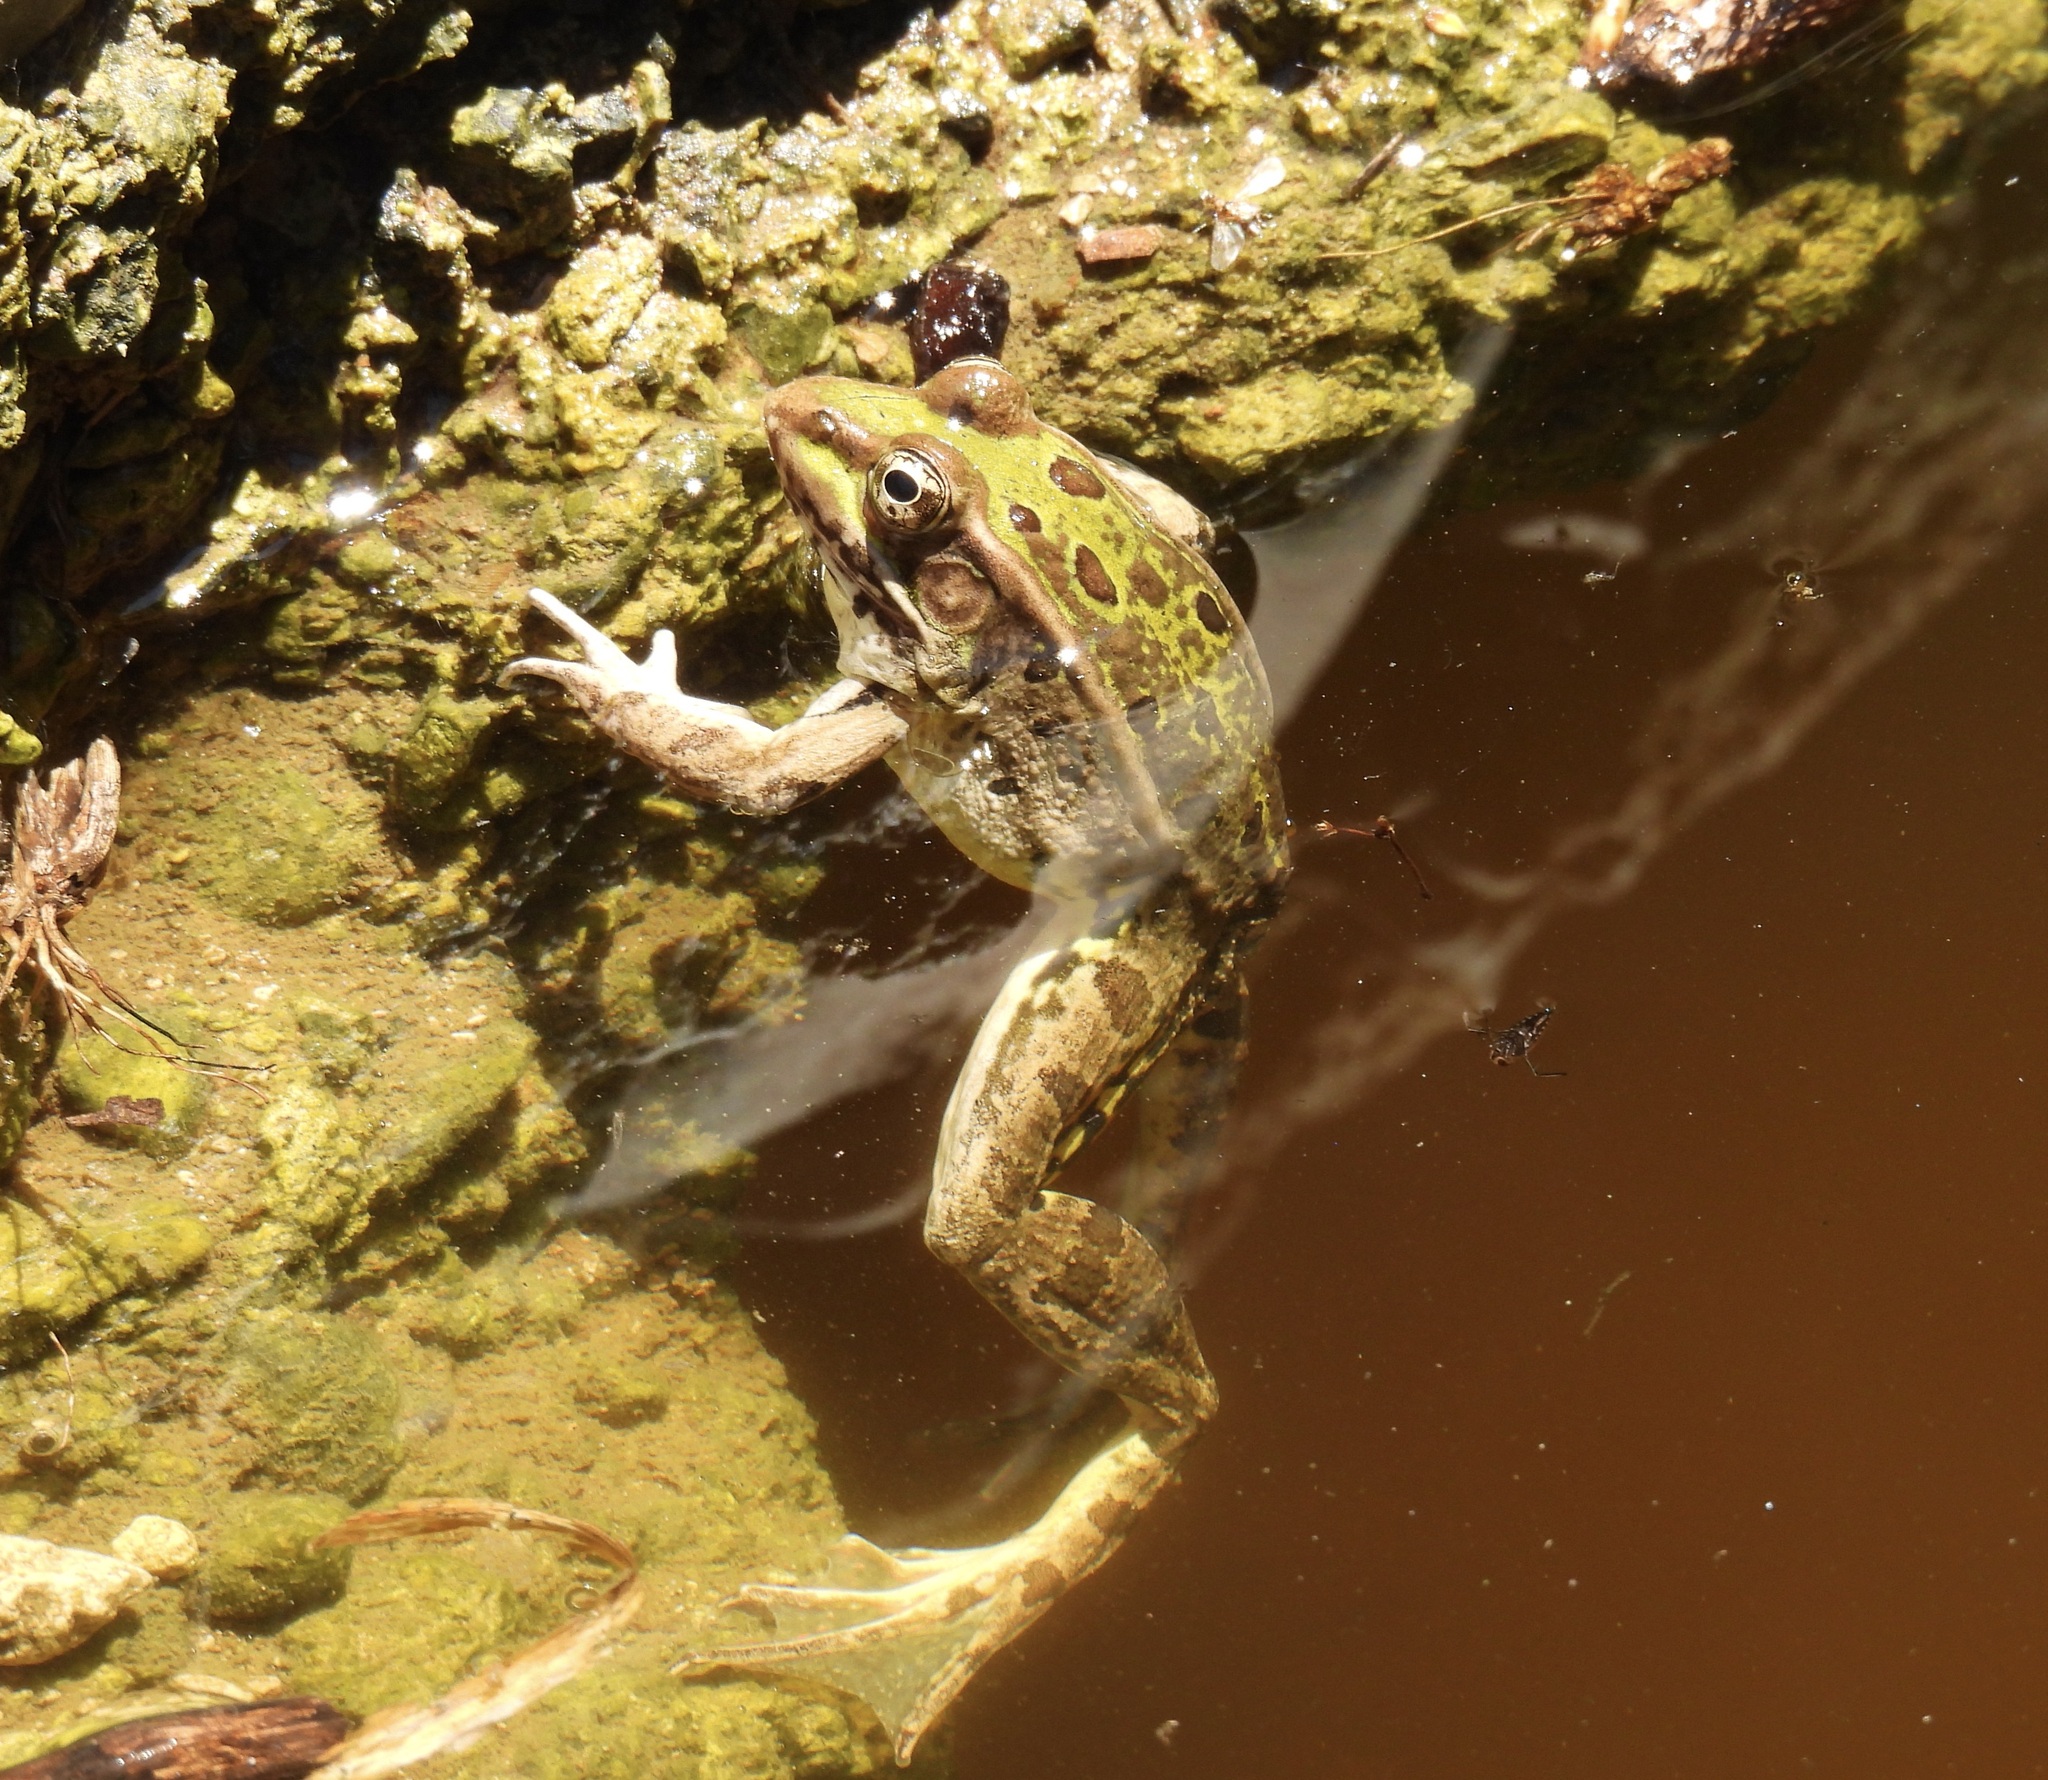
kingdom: Animalia
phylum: Chordata
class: Amphibia
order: Anura
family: Ranidae
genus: Lithobates
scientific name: Lithobates berlandieri
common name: Rio grande leopard frog
